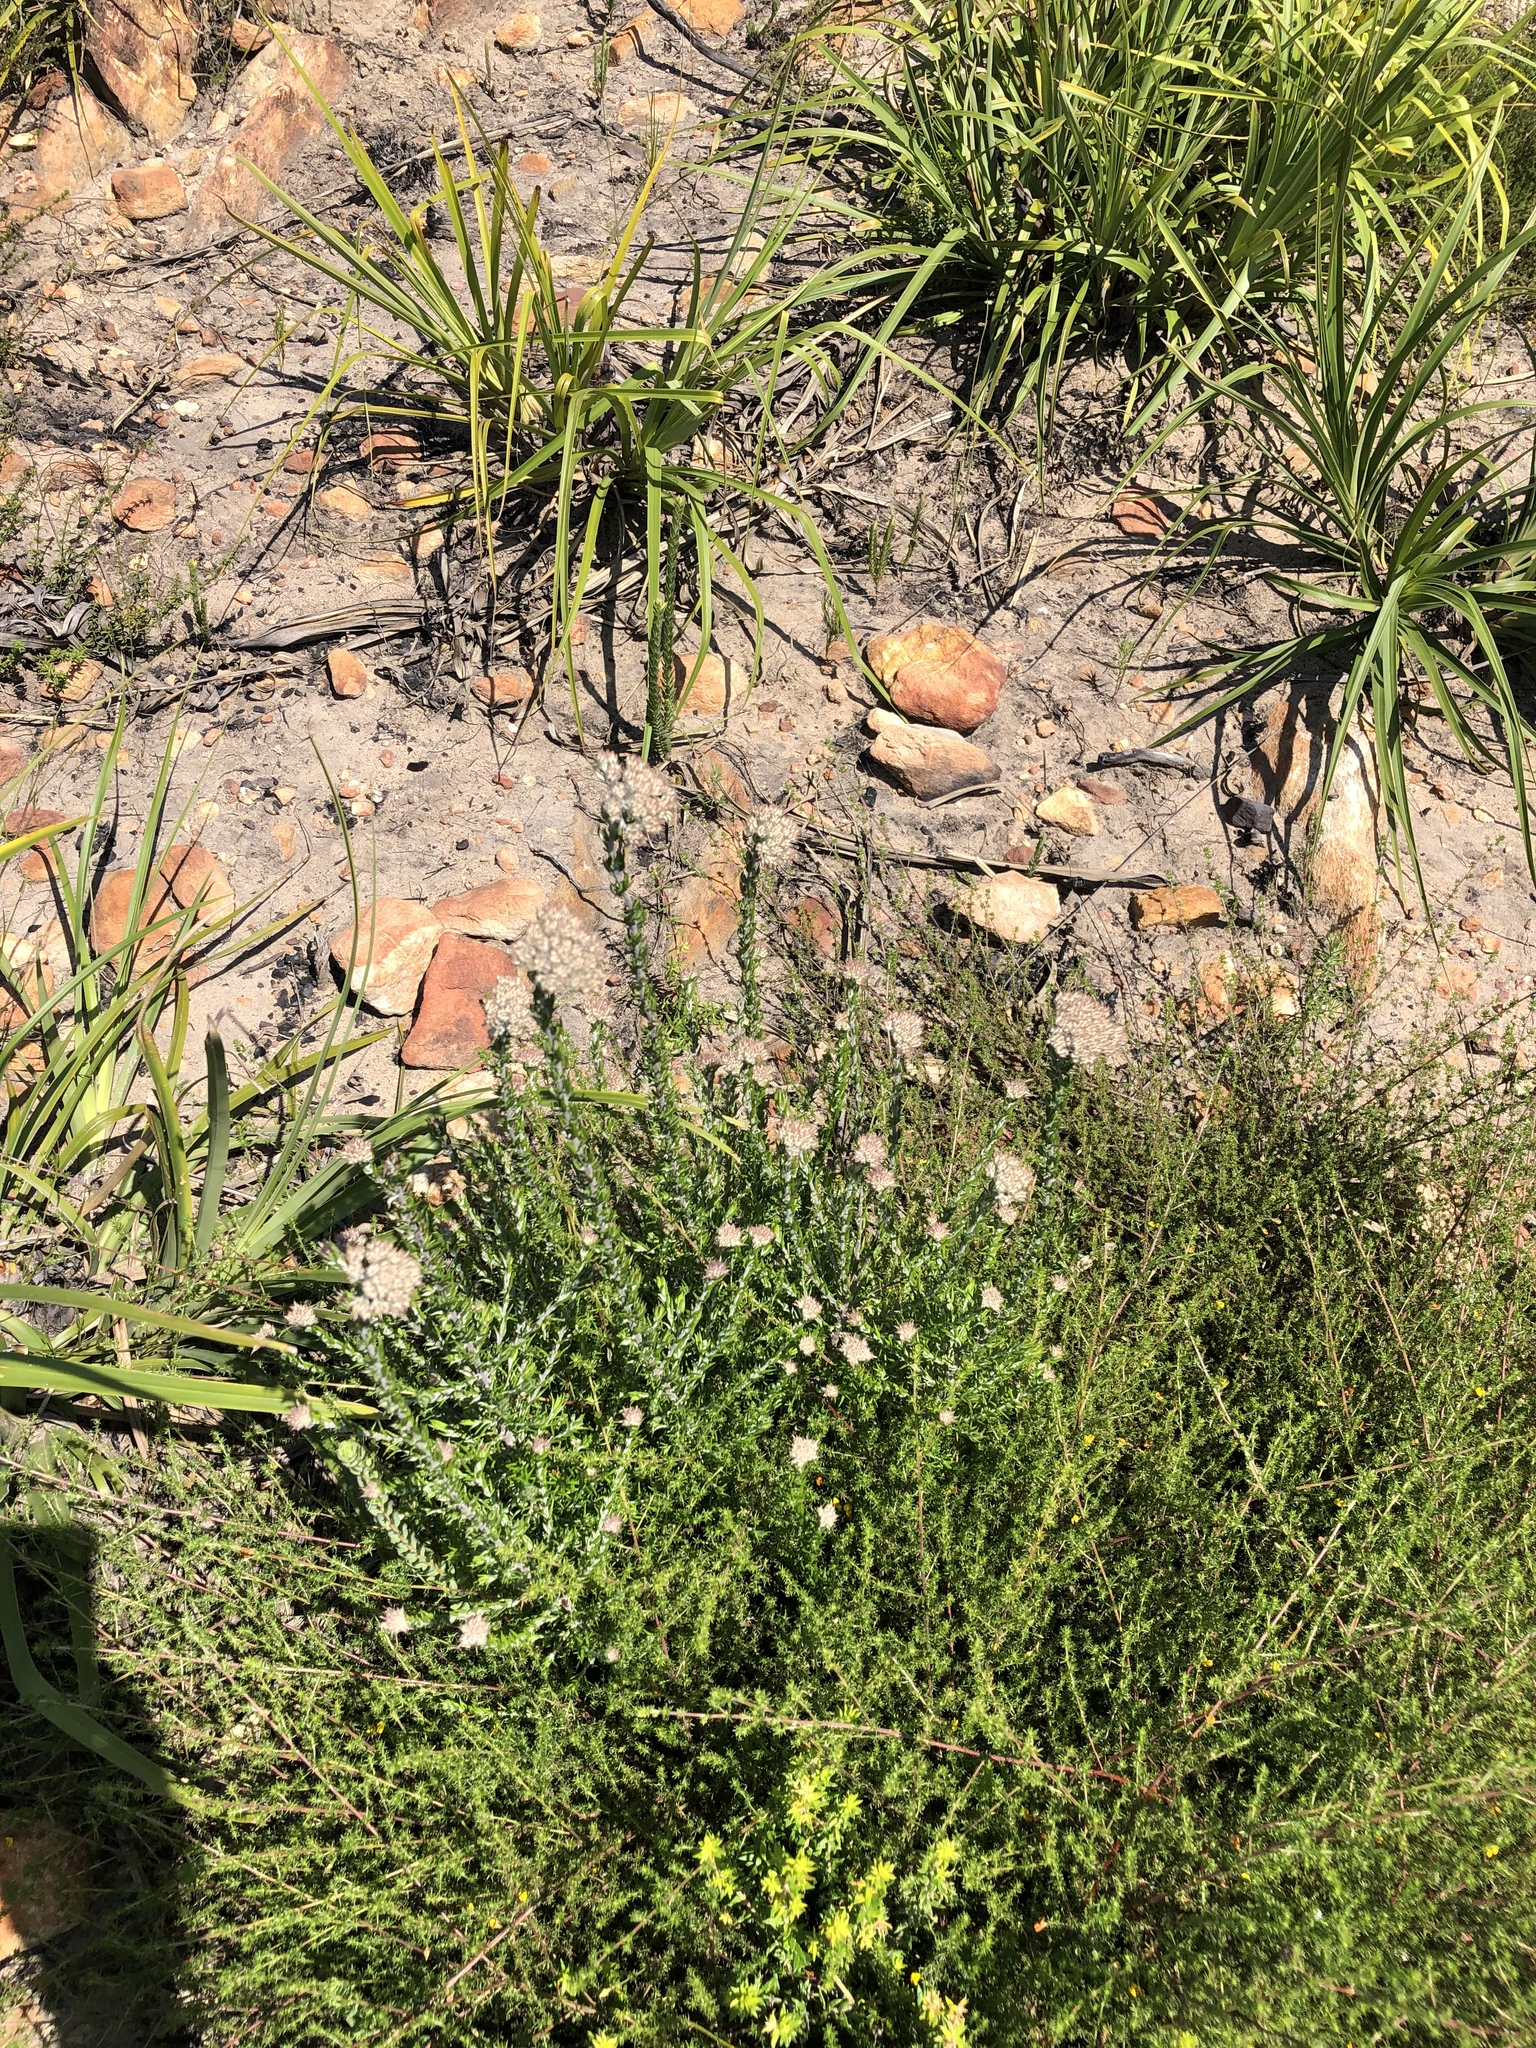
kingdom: Plantae
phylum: Tracheophyta
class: Magnoliopsida
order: Asterales
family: Asteraceae
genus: Metalasia
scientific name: Metalasia pungens
